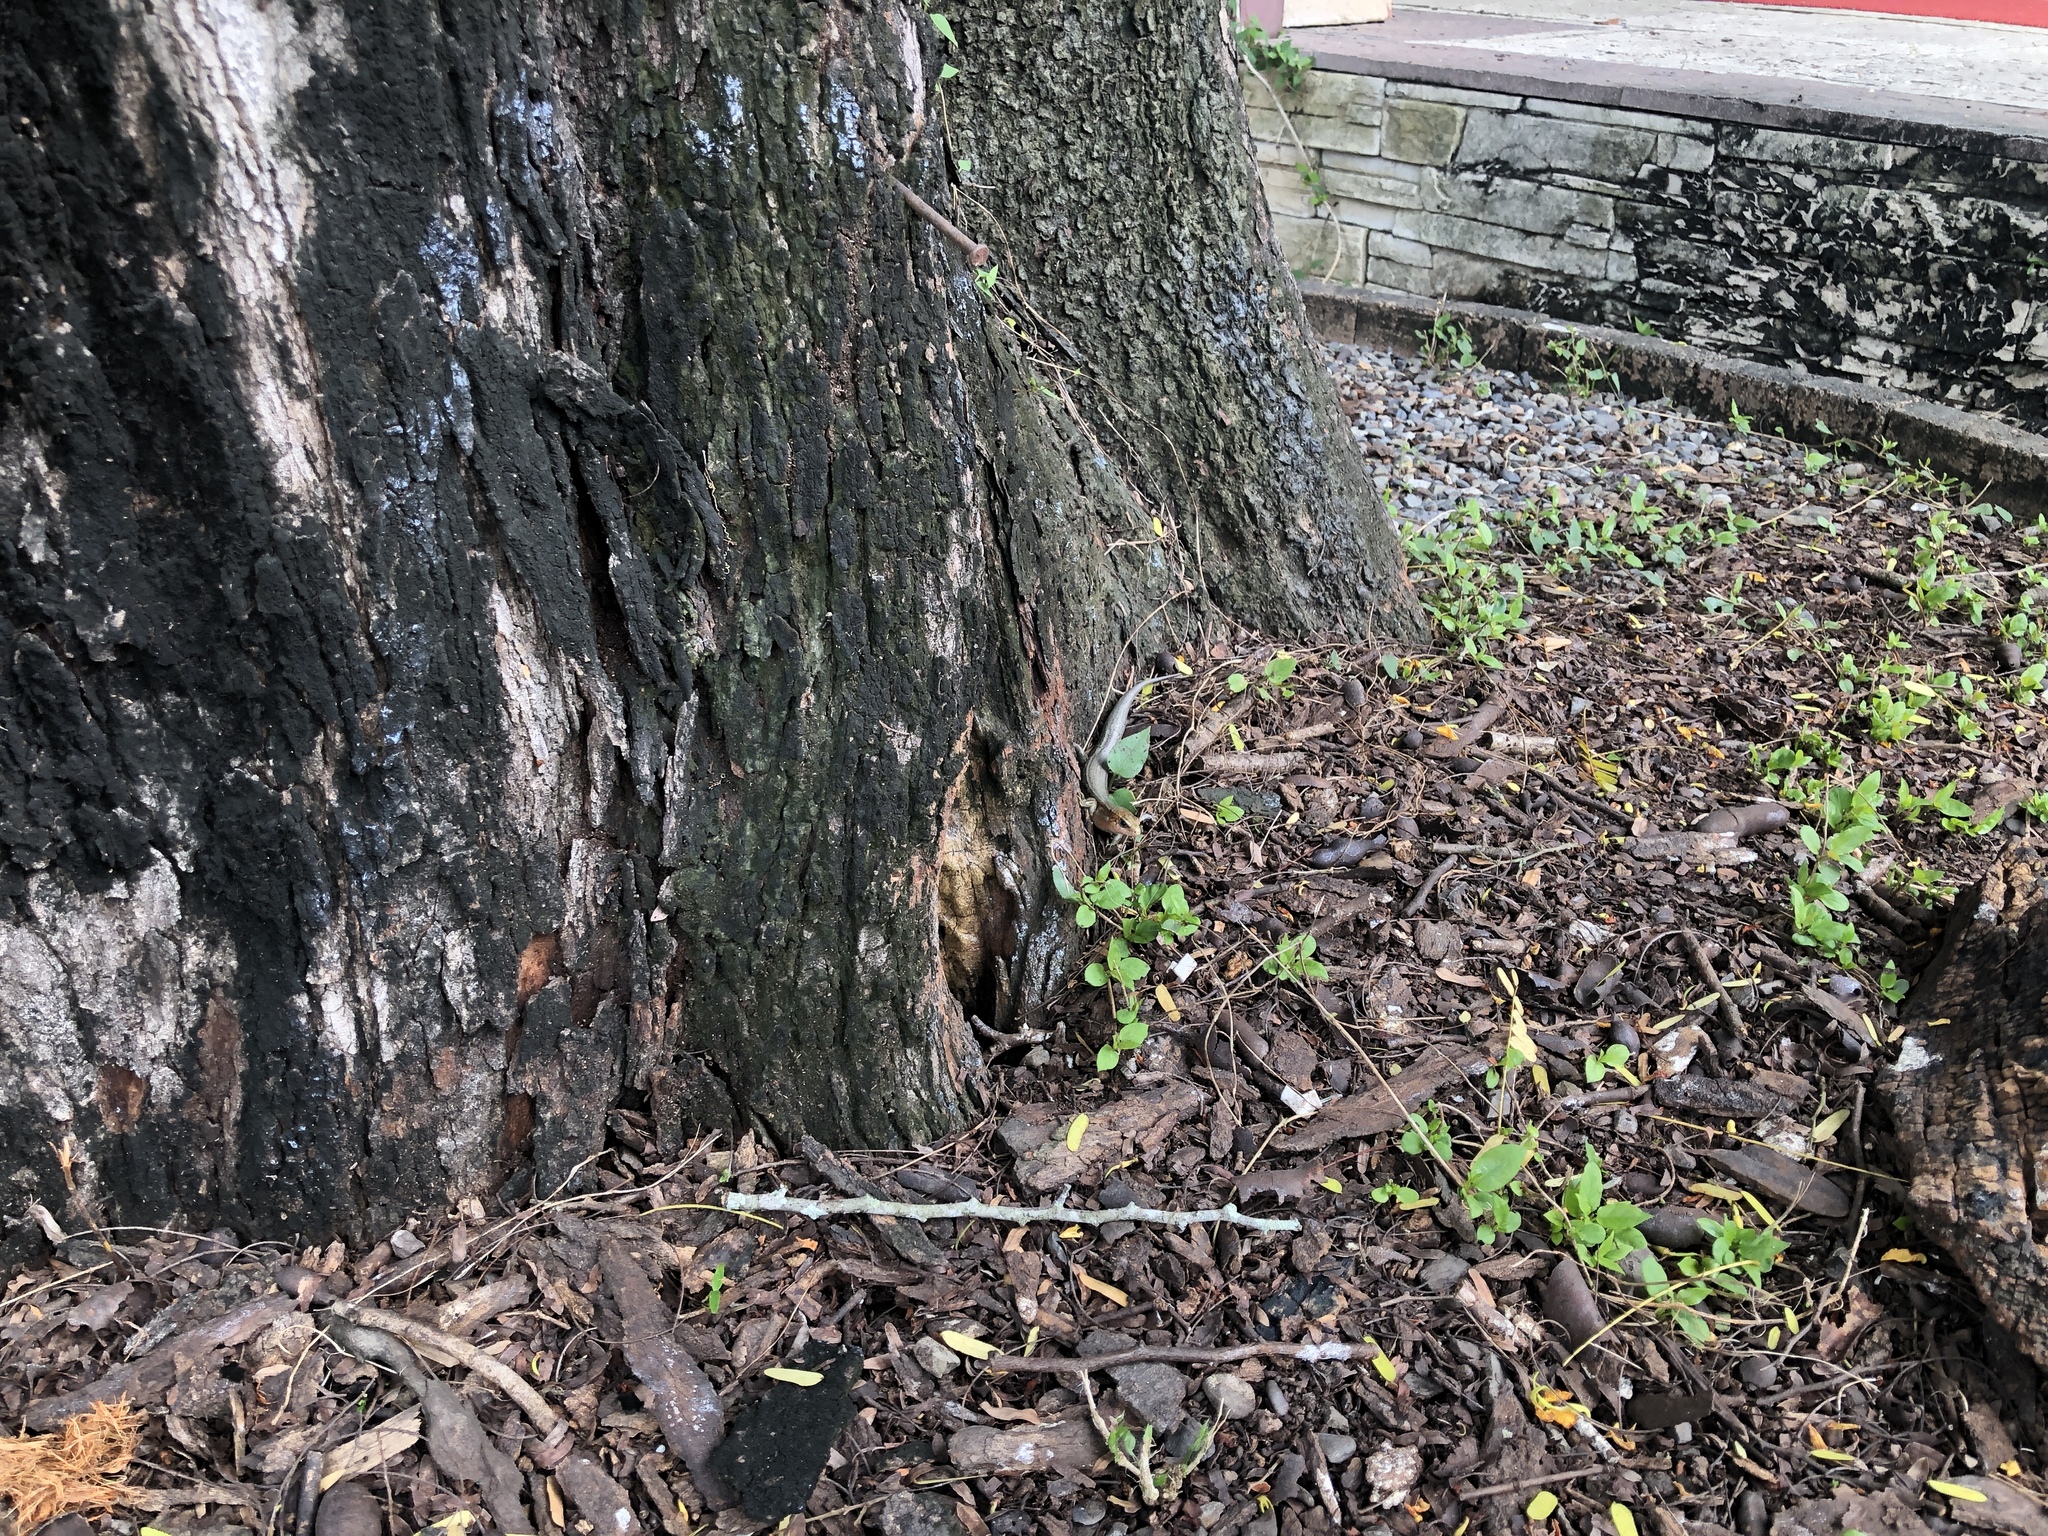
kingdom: Animalia
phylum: Chordata
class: Squamata
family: Scincidae
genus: Plestiodon
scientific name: Plestiodon elegans
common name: Shanghai elegant skink
